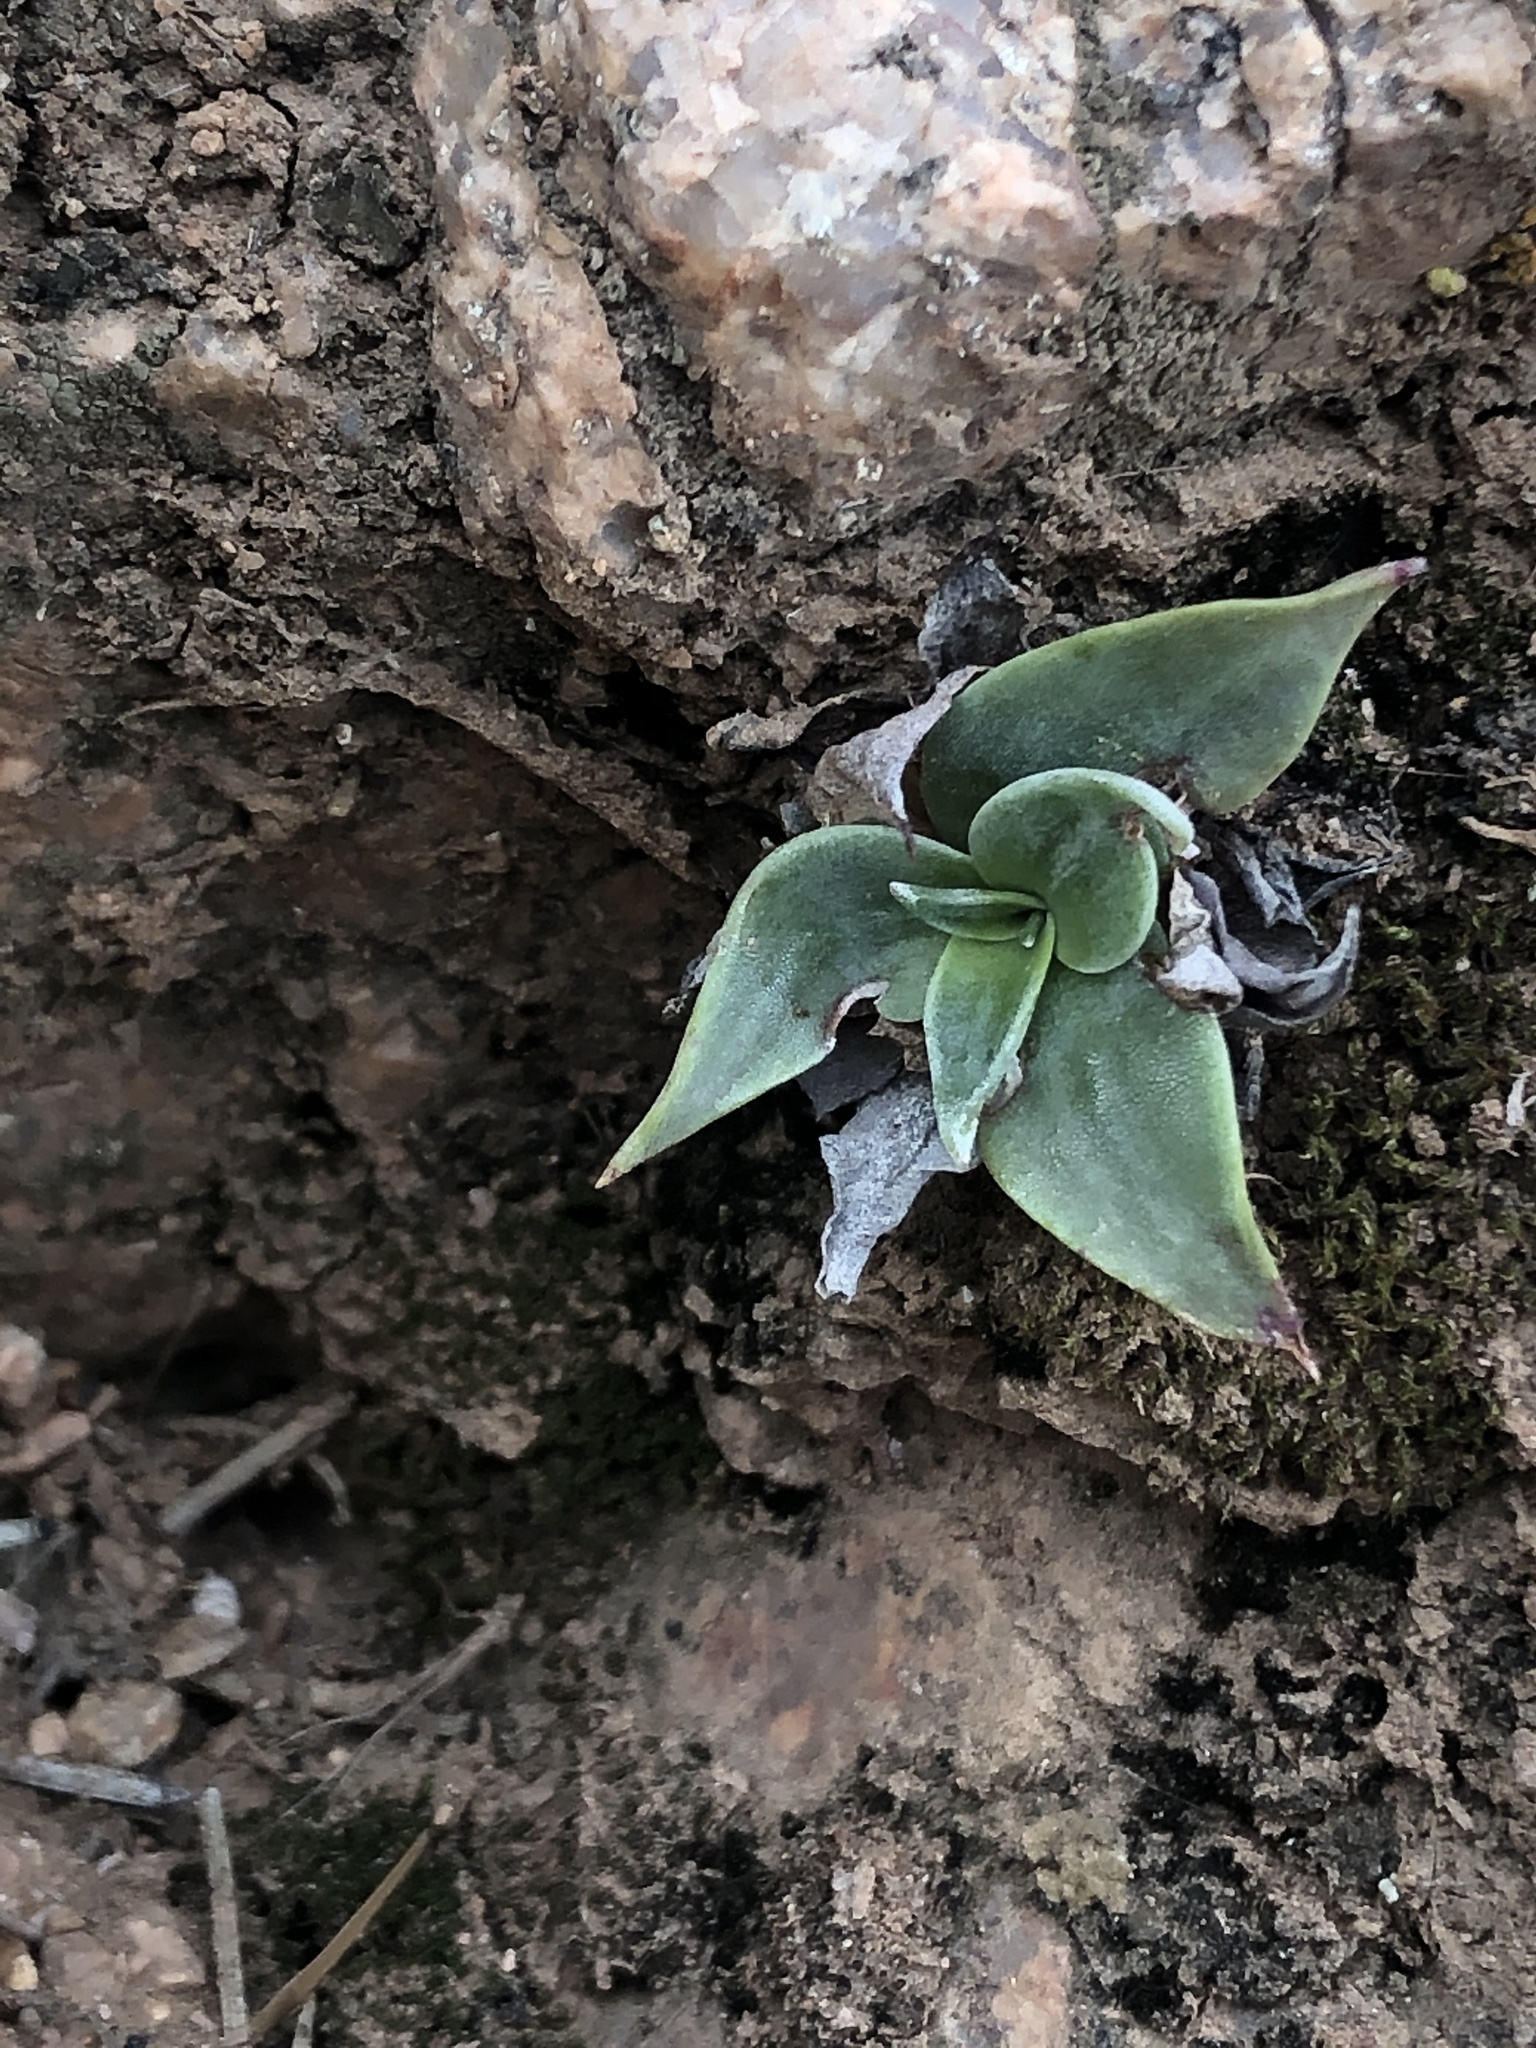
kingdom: Plantae
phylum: Tracheophyta
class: Magnoliopsida
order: Saxifragales
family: Crassulaceae
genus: Dudleya
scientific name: Dudleya arizonica
